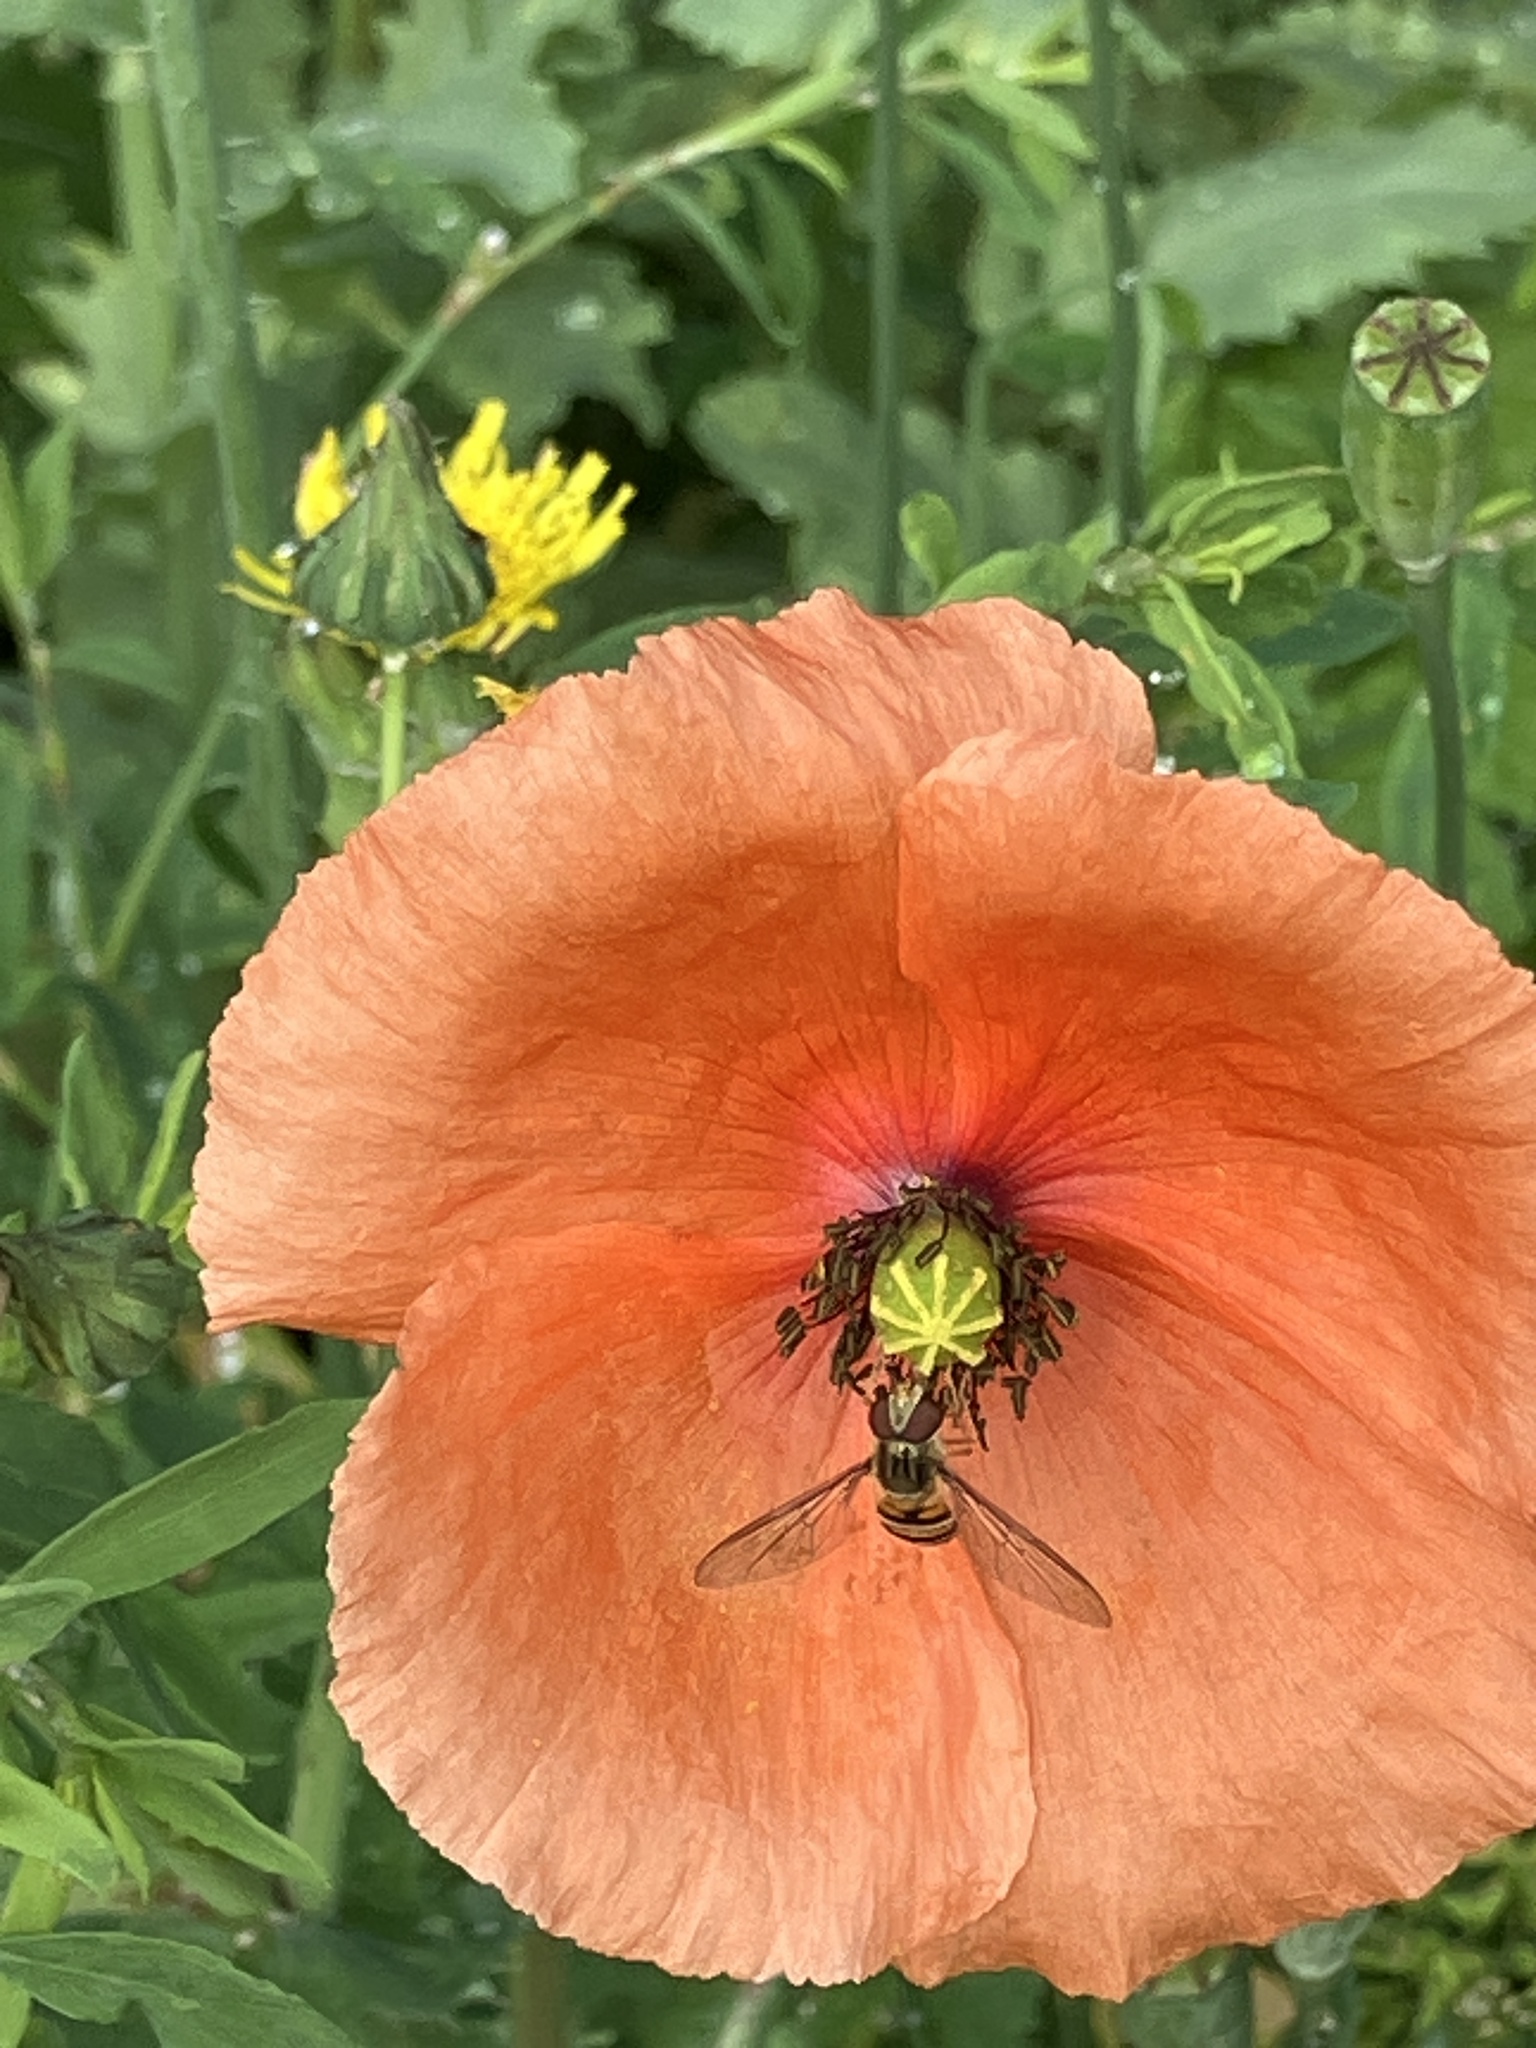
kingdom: Animalia
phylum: Arthropoda
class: Insecta
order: Diptera
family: Syrphidae
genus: Episyrphus
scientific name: Episyrphus balteatus
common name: Marmalade hoverfly
